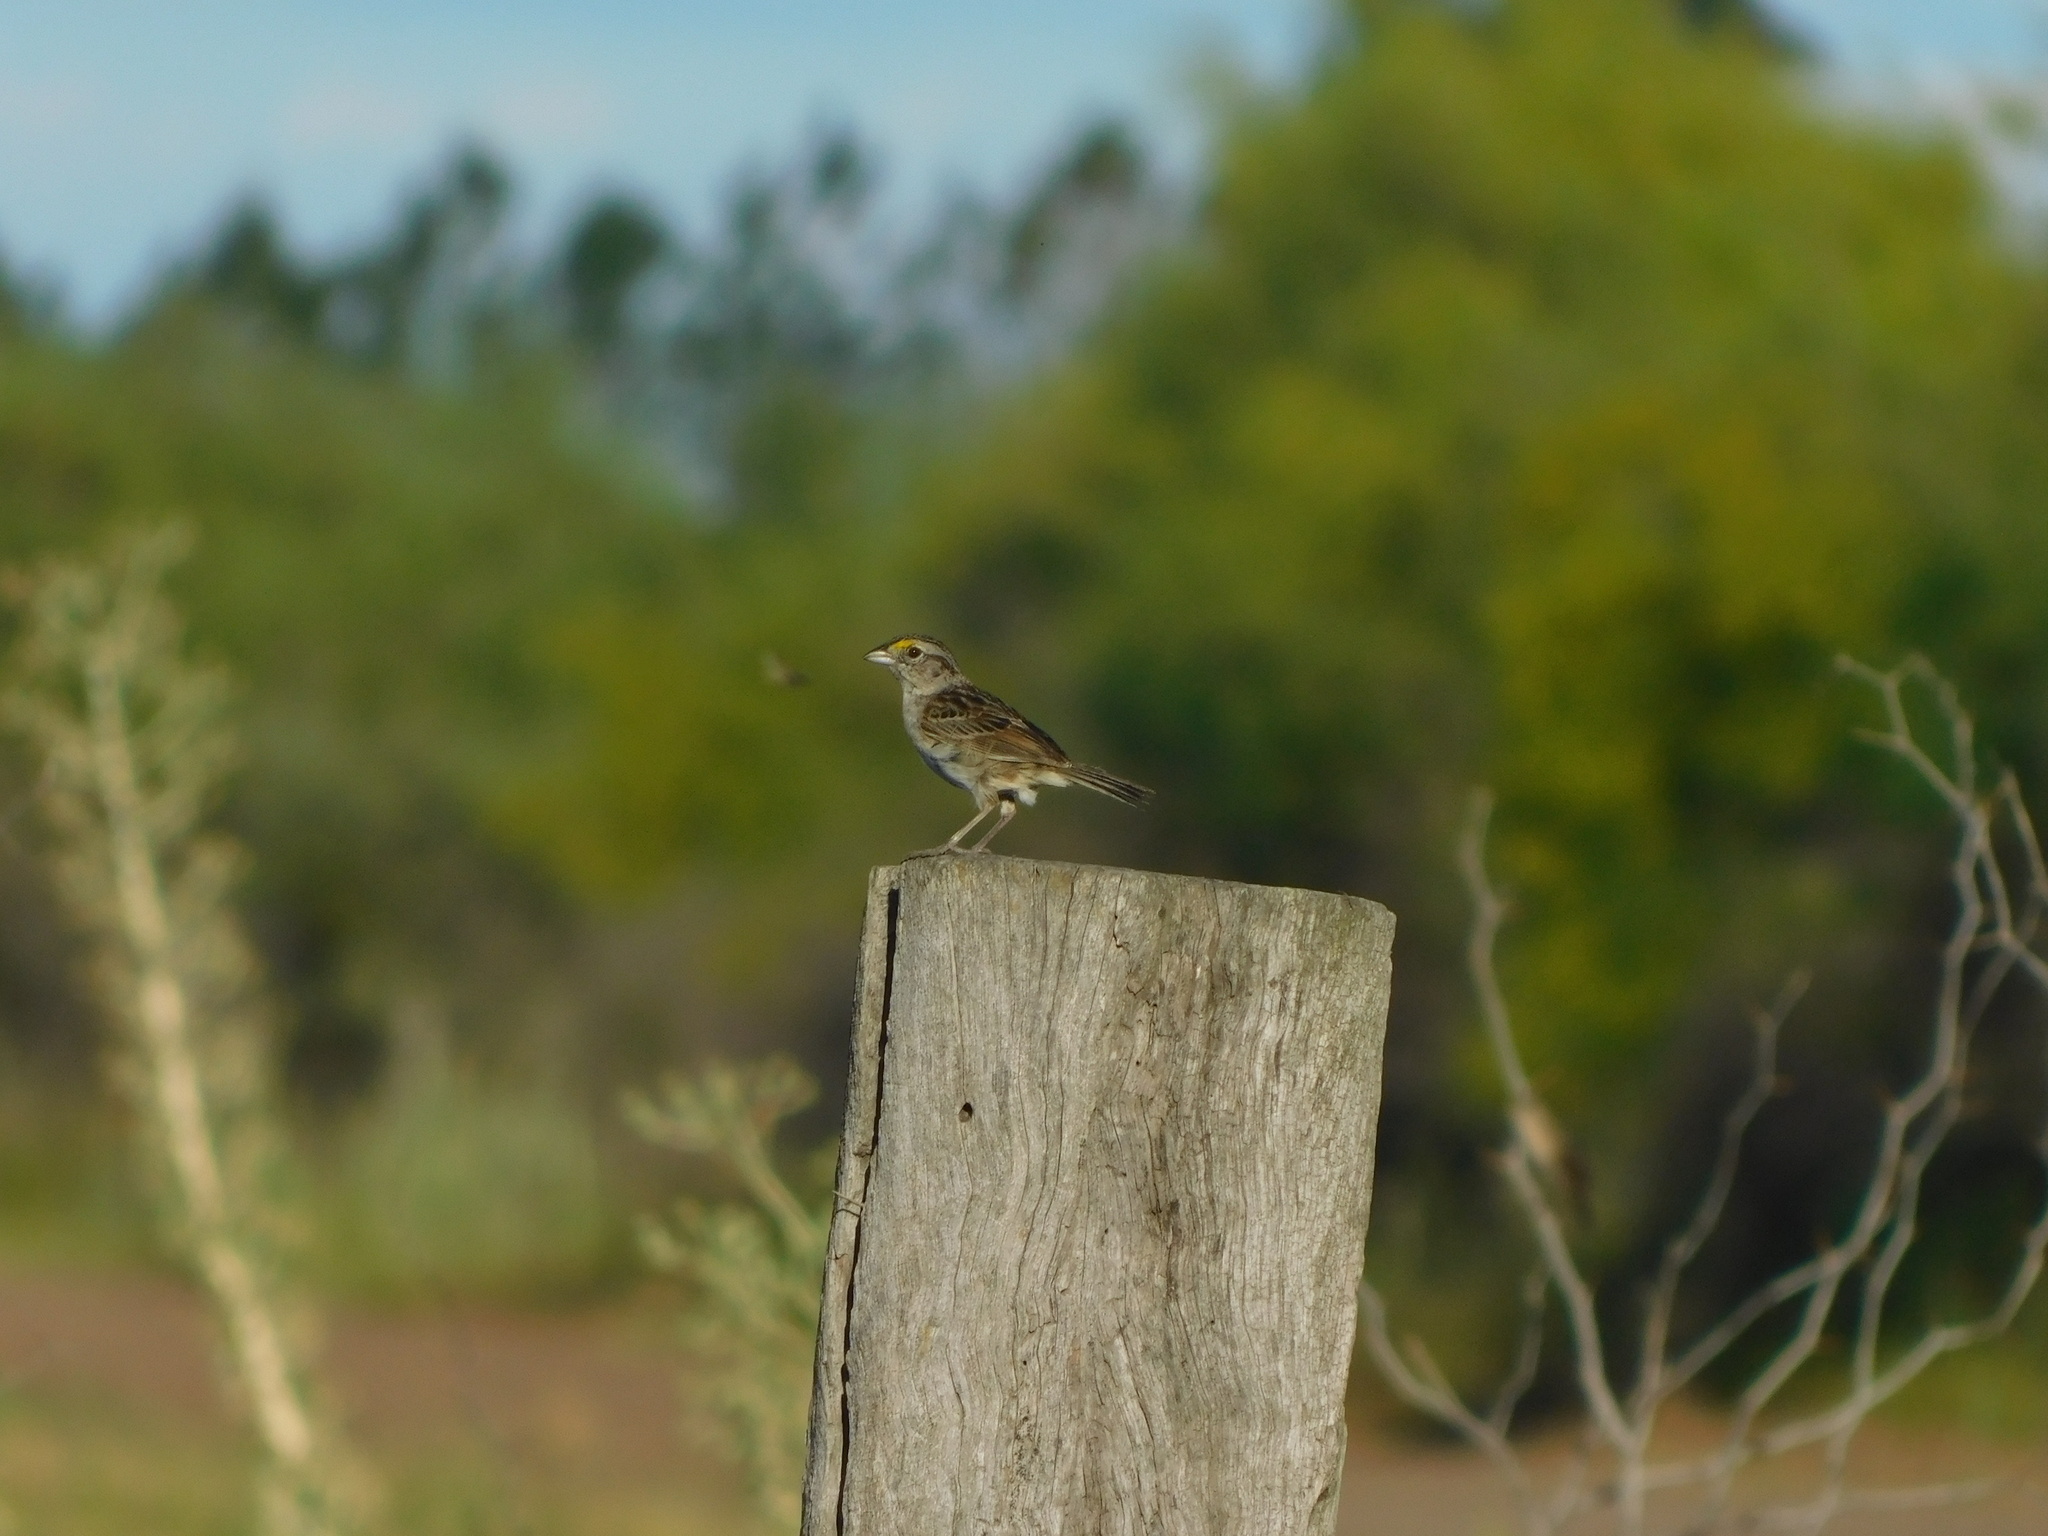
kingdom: Animalia
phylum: Chordata
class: Aves
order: Passeriformes
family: Passerellidae
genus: Ammodramus
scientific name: Ammodramus humeralis
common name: Grassland sparrow
